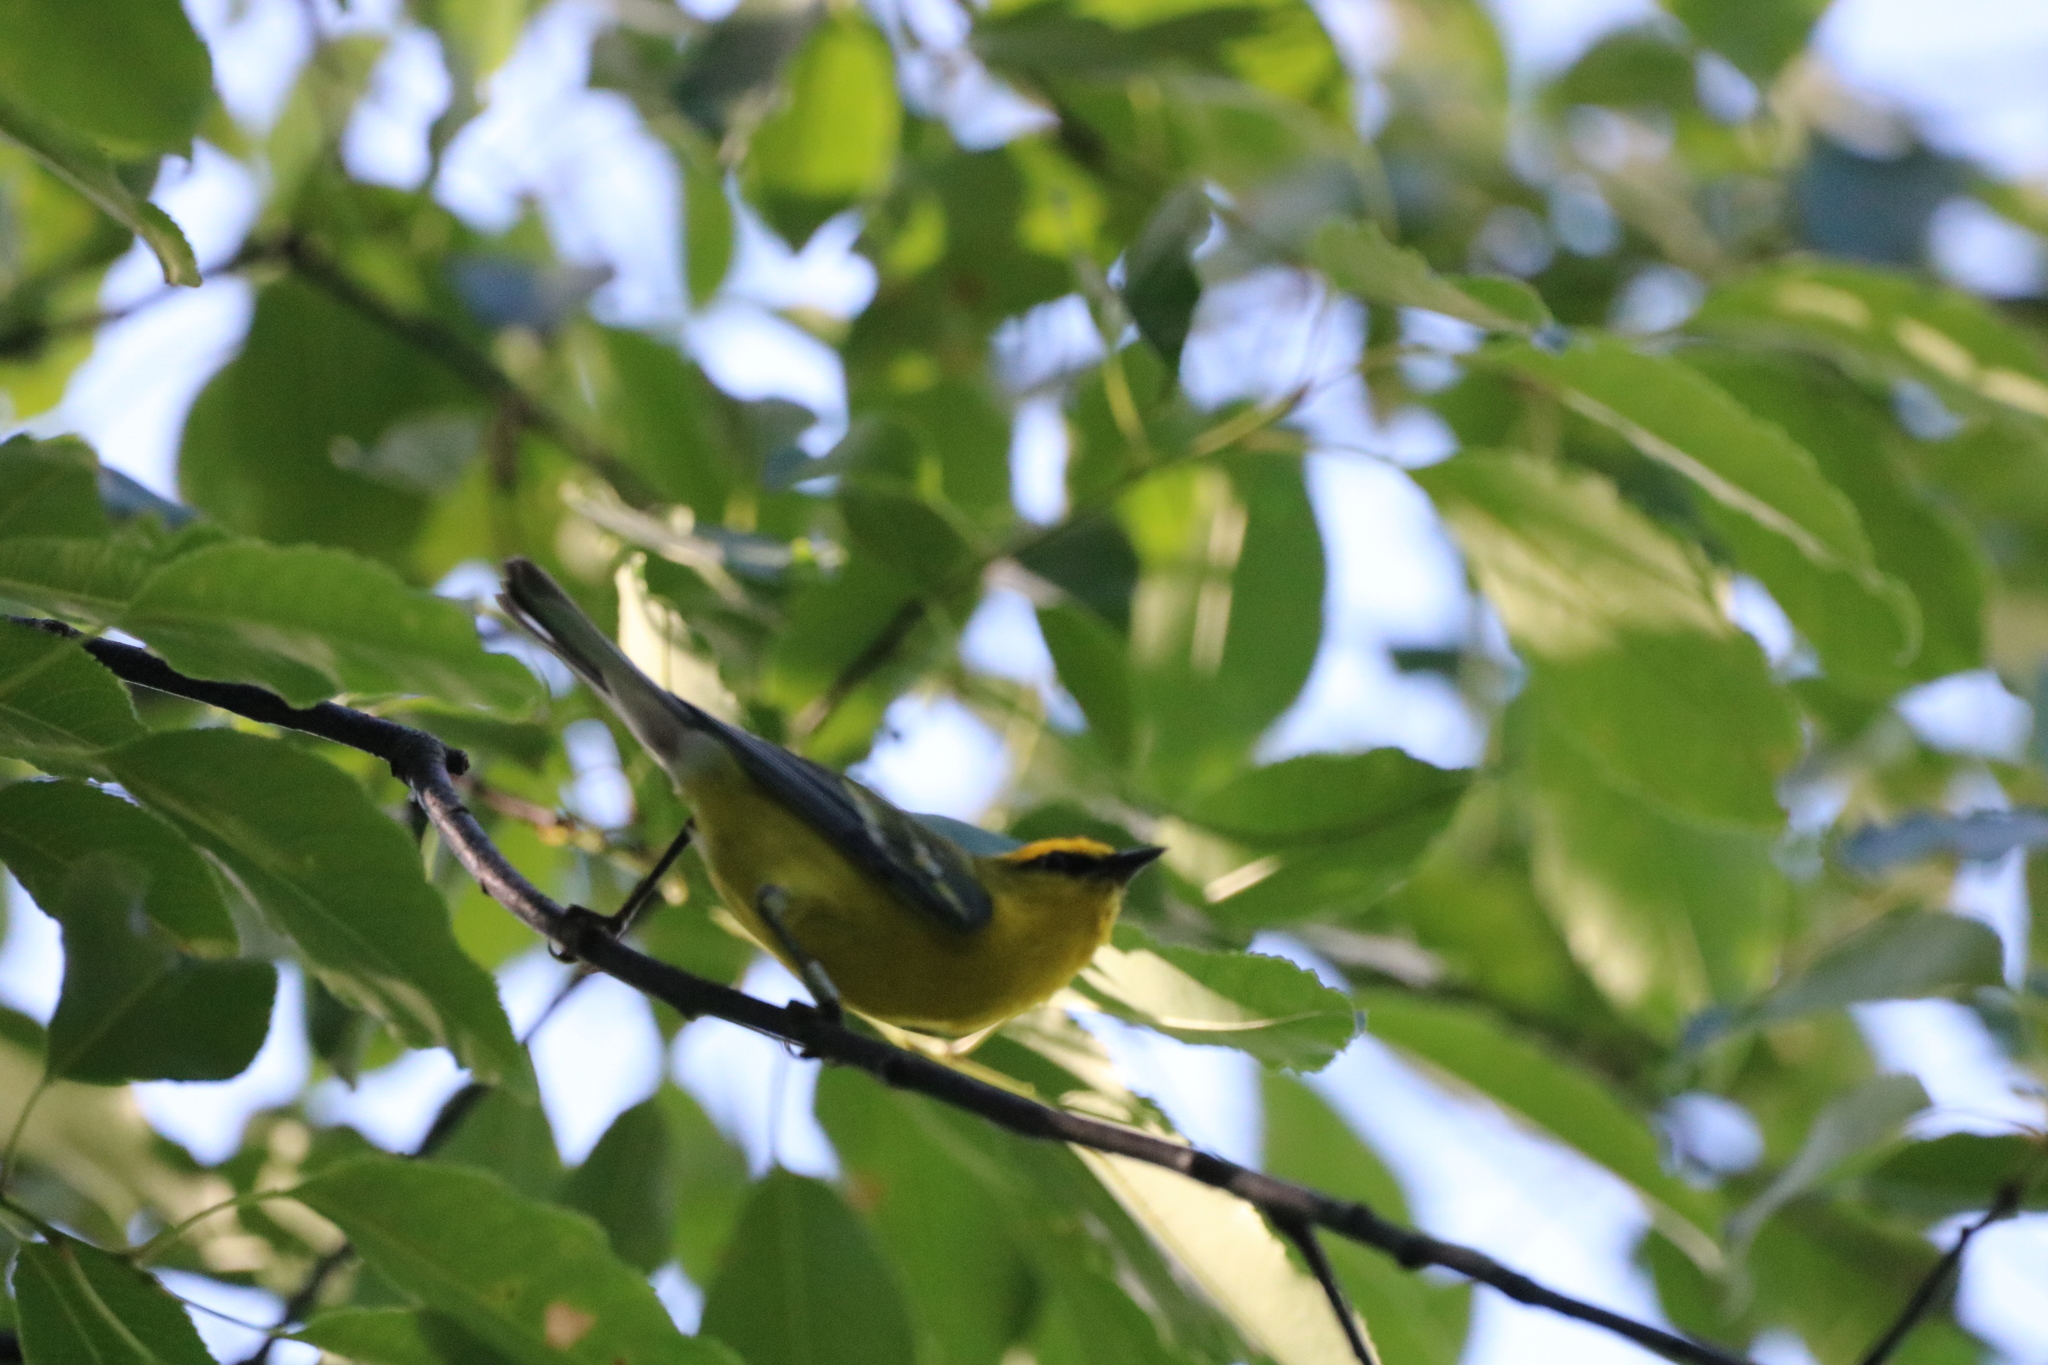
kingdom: Animalia
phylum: Chordata
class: Aves
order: Passeriformes
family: Parulidae
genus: Vermivora
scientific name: Vermivora cyanoptera
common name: Blue-winged warbler
